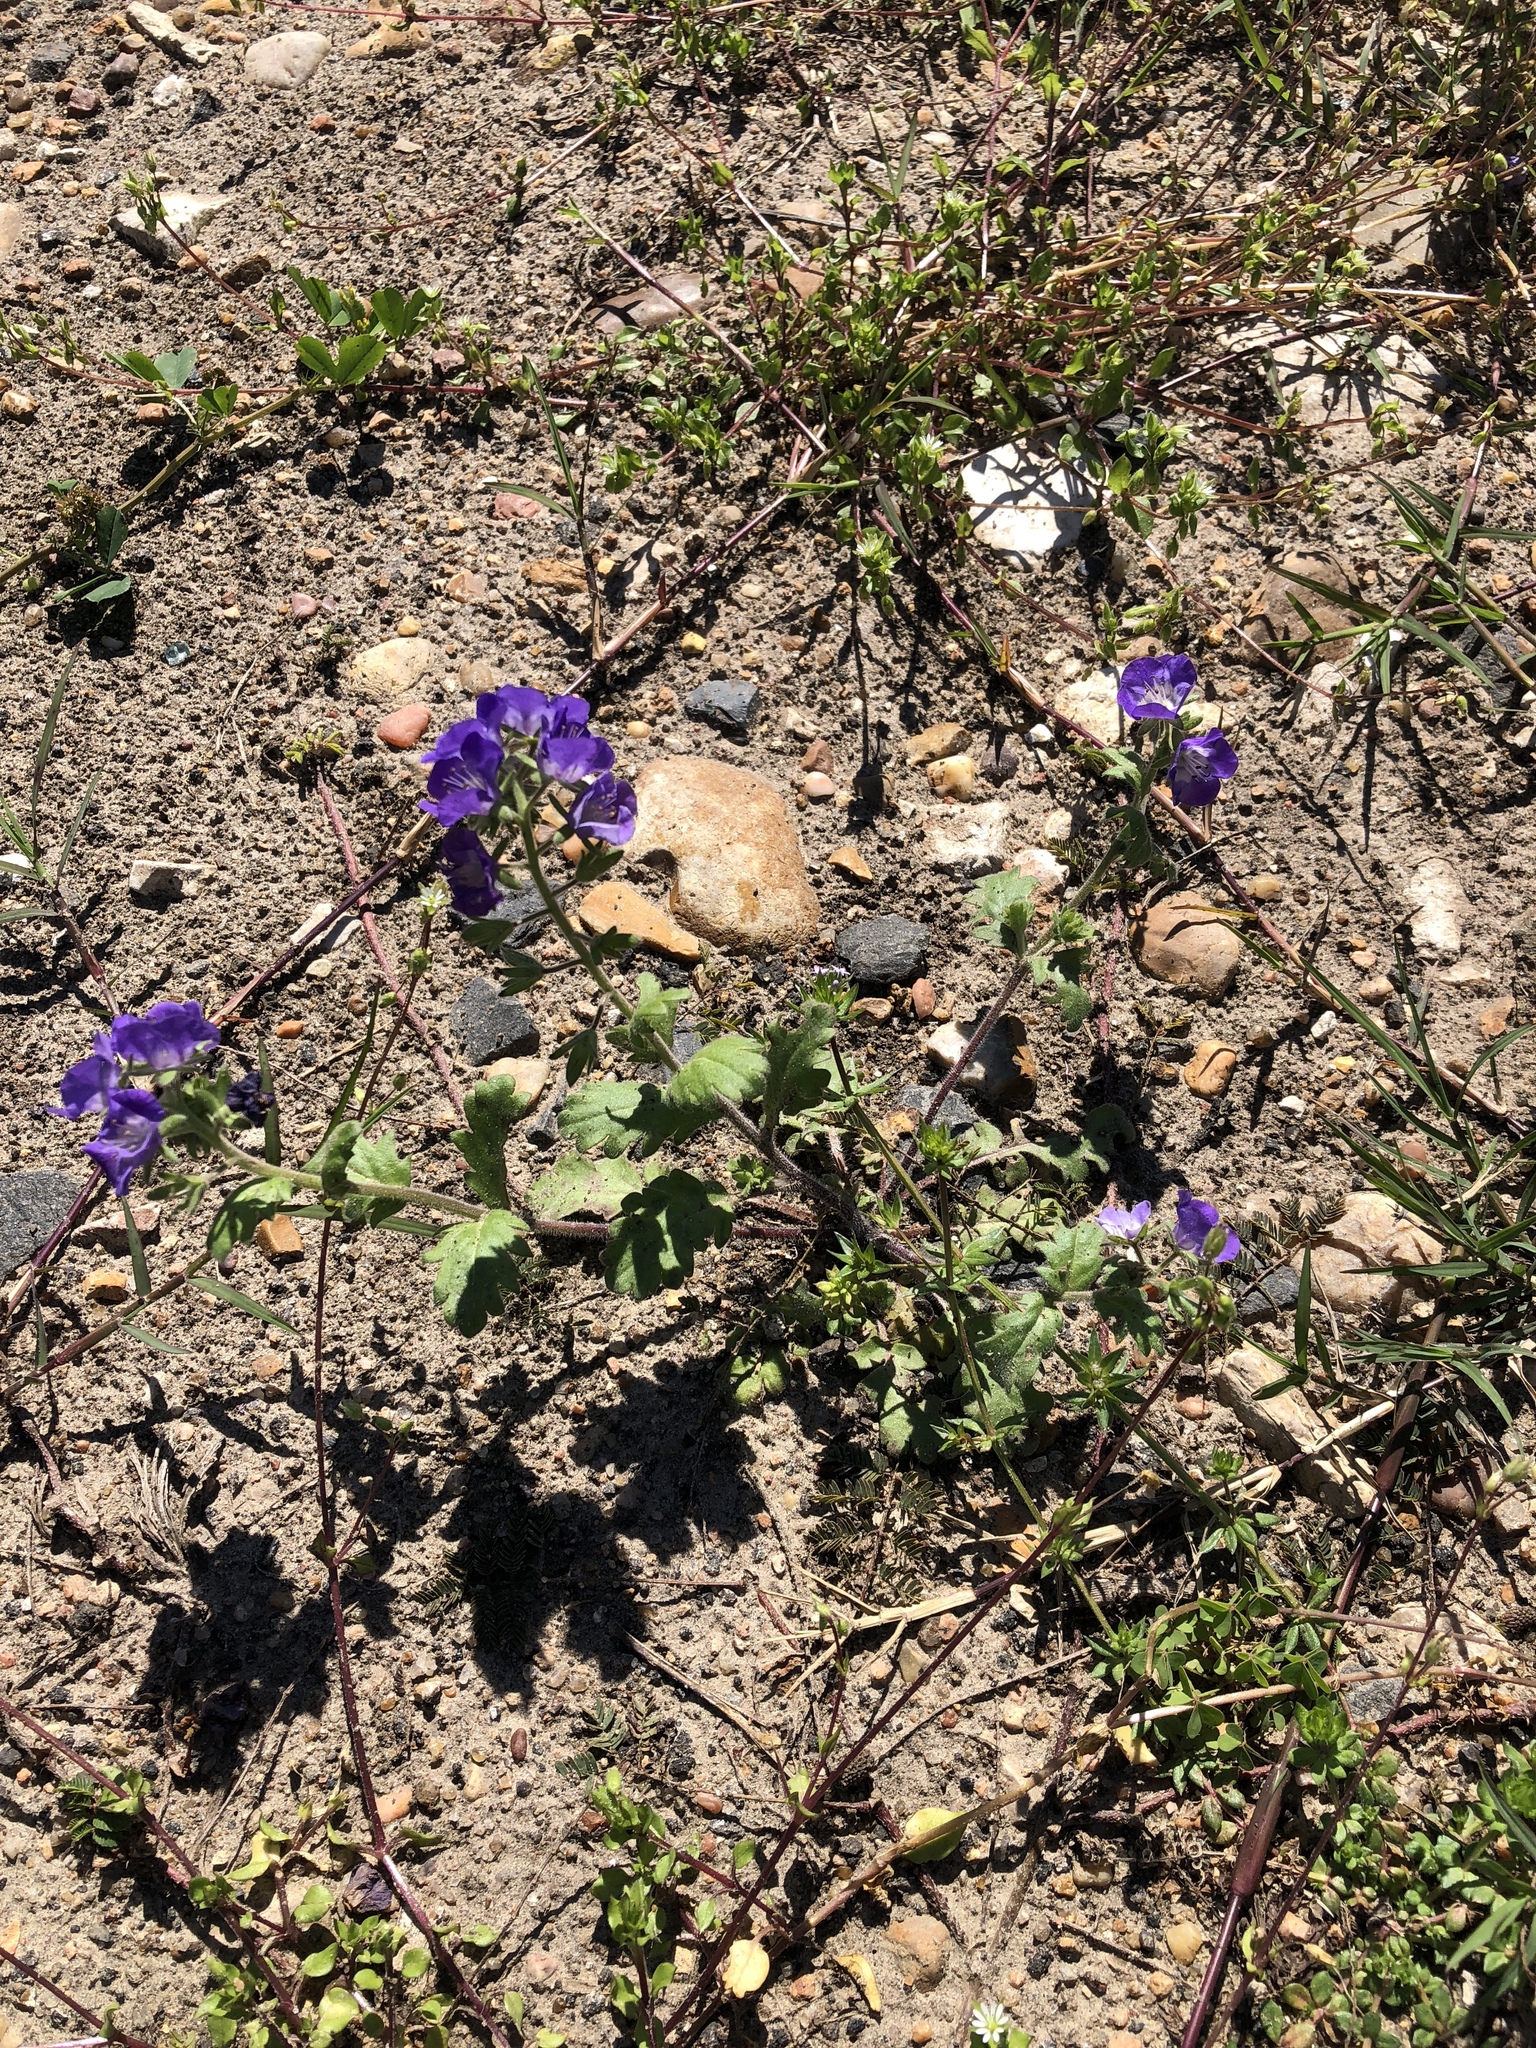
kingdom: Plantae
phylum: Tracheophyta
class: Magnoliopsida
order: Boraginales
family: Hydrophyllaceae
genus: Phacelia
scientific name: Phacelia patuliflora
